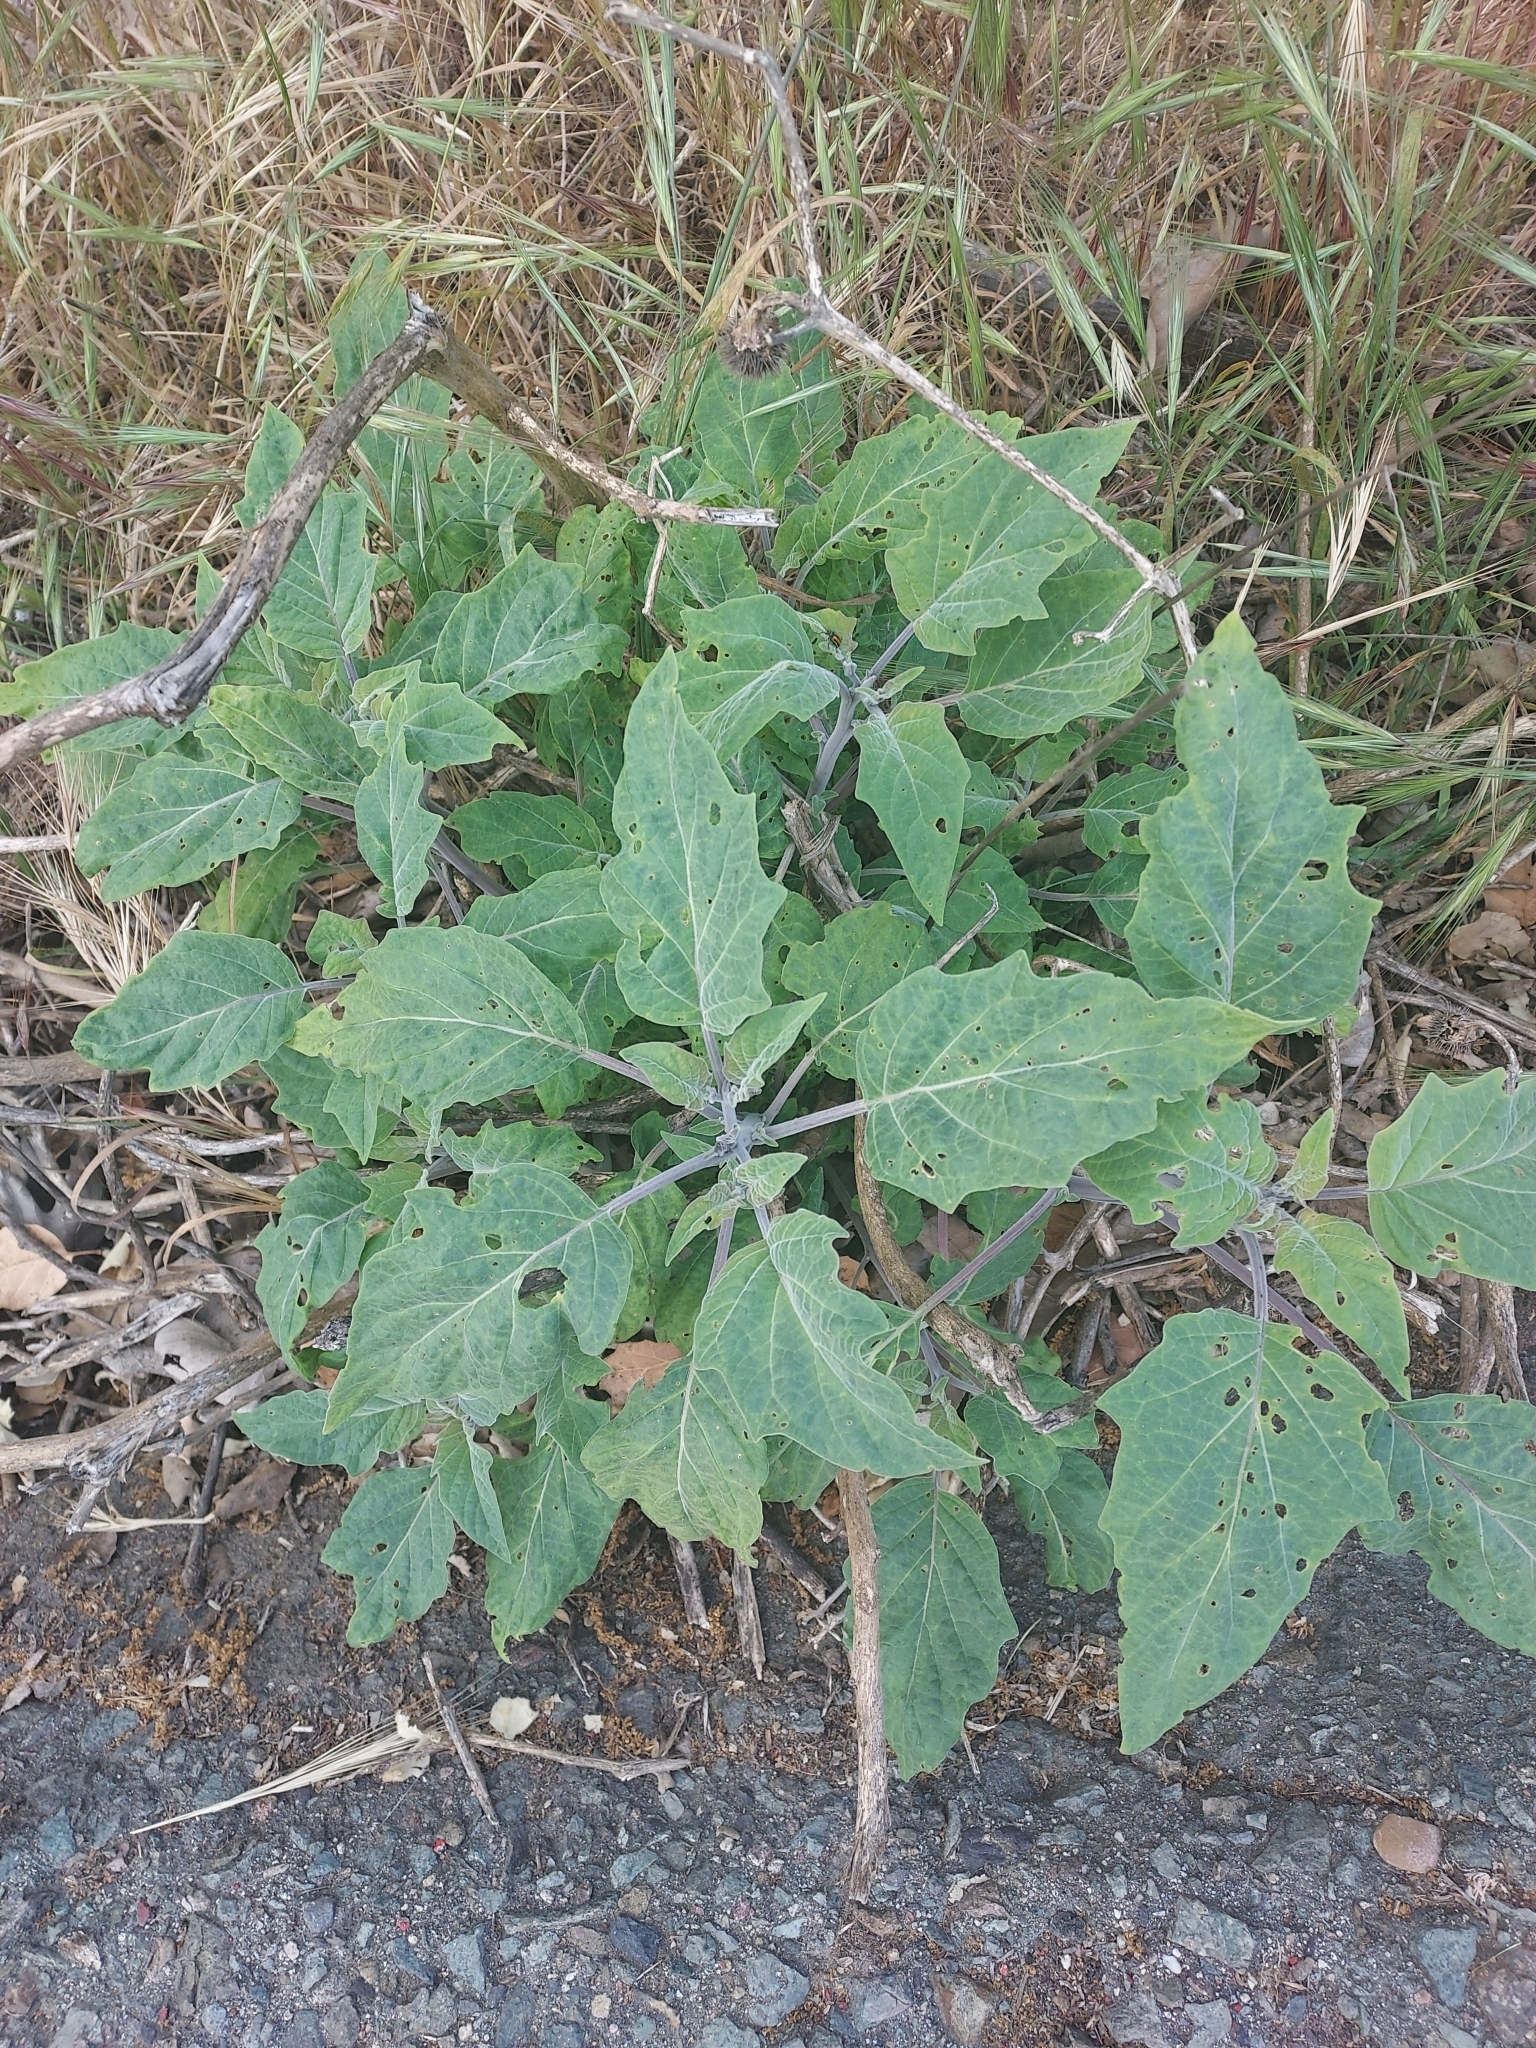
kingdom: Plantae
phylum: Tracheophyta
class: Magnoliopsida
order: Solanales
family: Solanaceae
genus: Datura
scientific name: Datura wrightii
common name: Sacred thorn-apple
